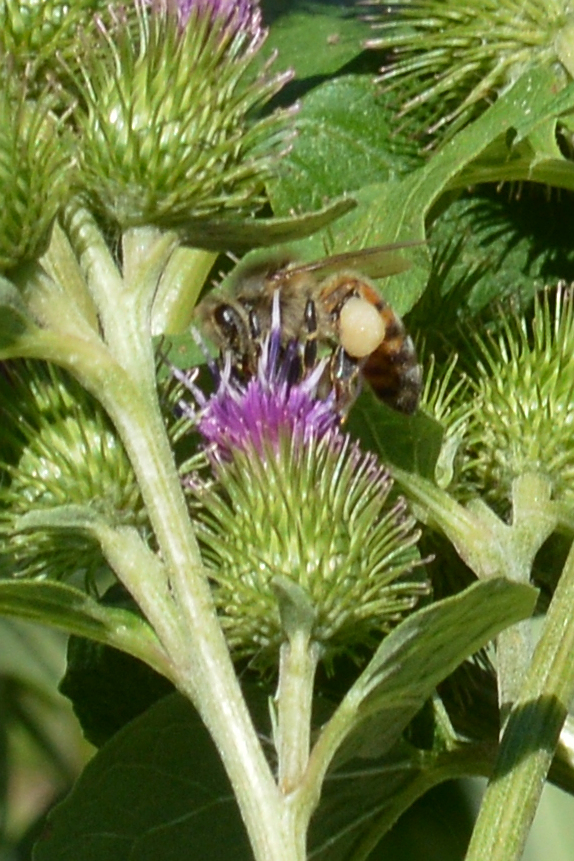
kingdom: Animalia
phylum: Arthropoda
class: Insecta
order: Hymenoptera
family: Apidae
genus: Apis
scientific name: Apis mellifera
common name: Honey bee
